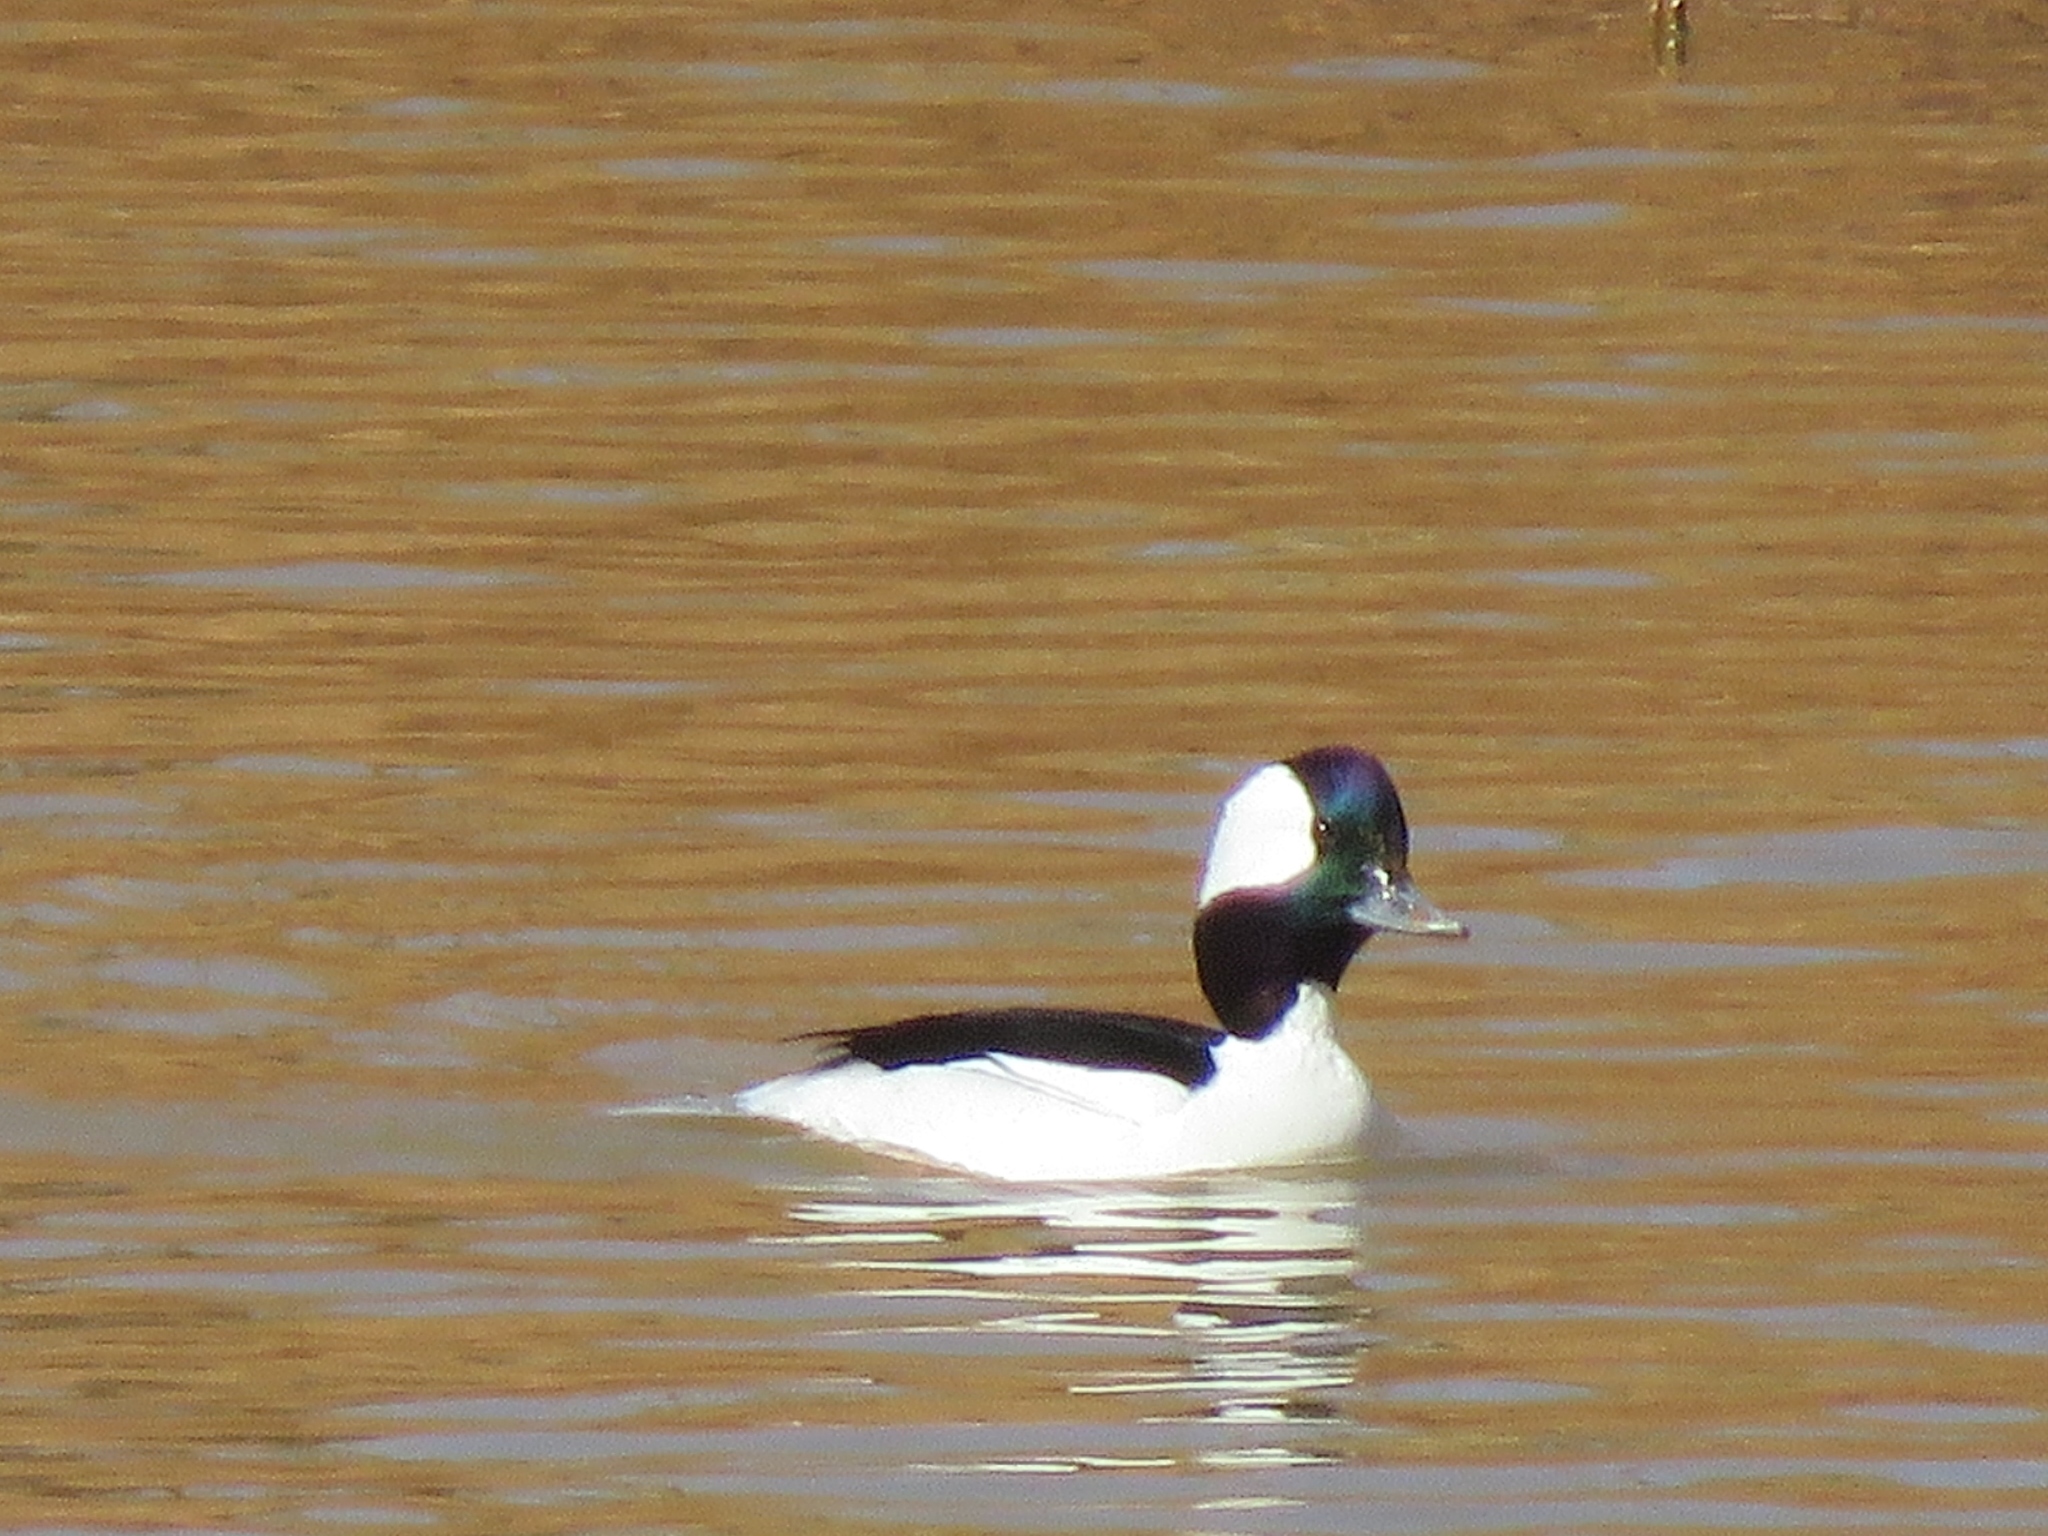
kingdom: Animalia
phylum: Chordata
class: Aves
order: Anseriformes
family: Anatidae
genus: Bucephala
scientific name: Bucephala albeola
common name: Bufflehead
